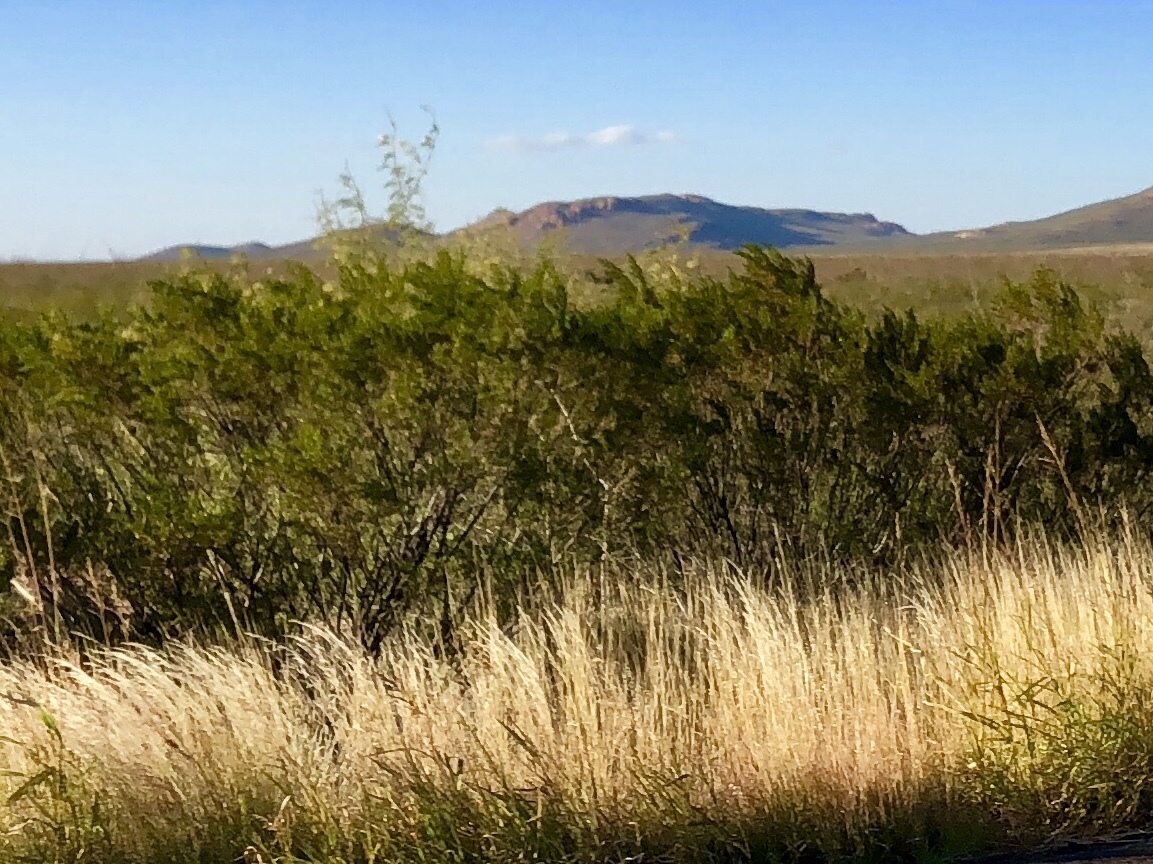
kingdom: Plantae
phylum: Tracheophyta
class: Magnoliopsida
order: Zygophyllales
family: Zygophyllaceae
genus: Larrea
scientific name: Larrea tridentata
